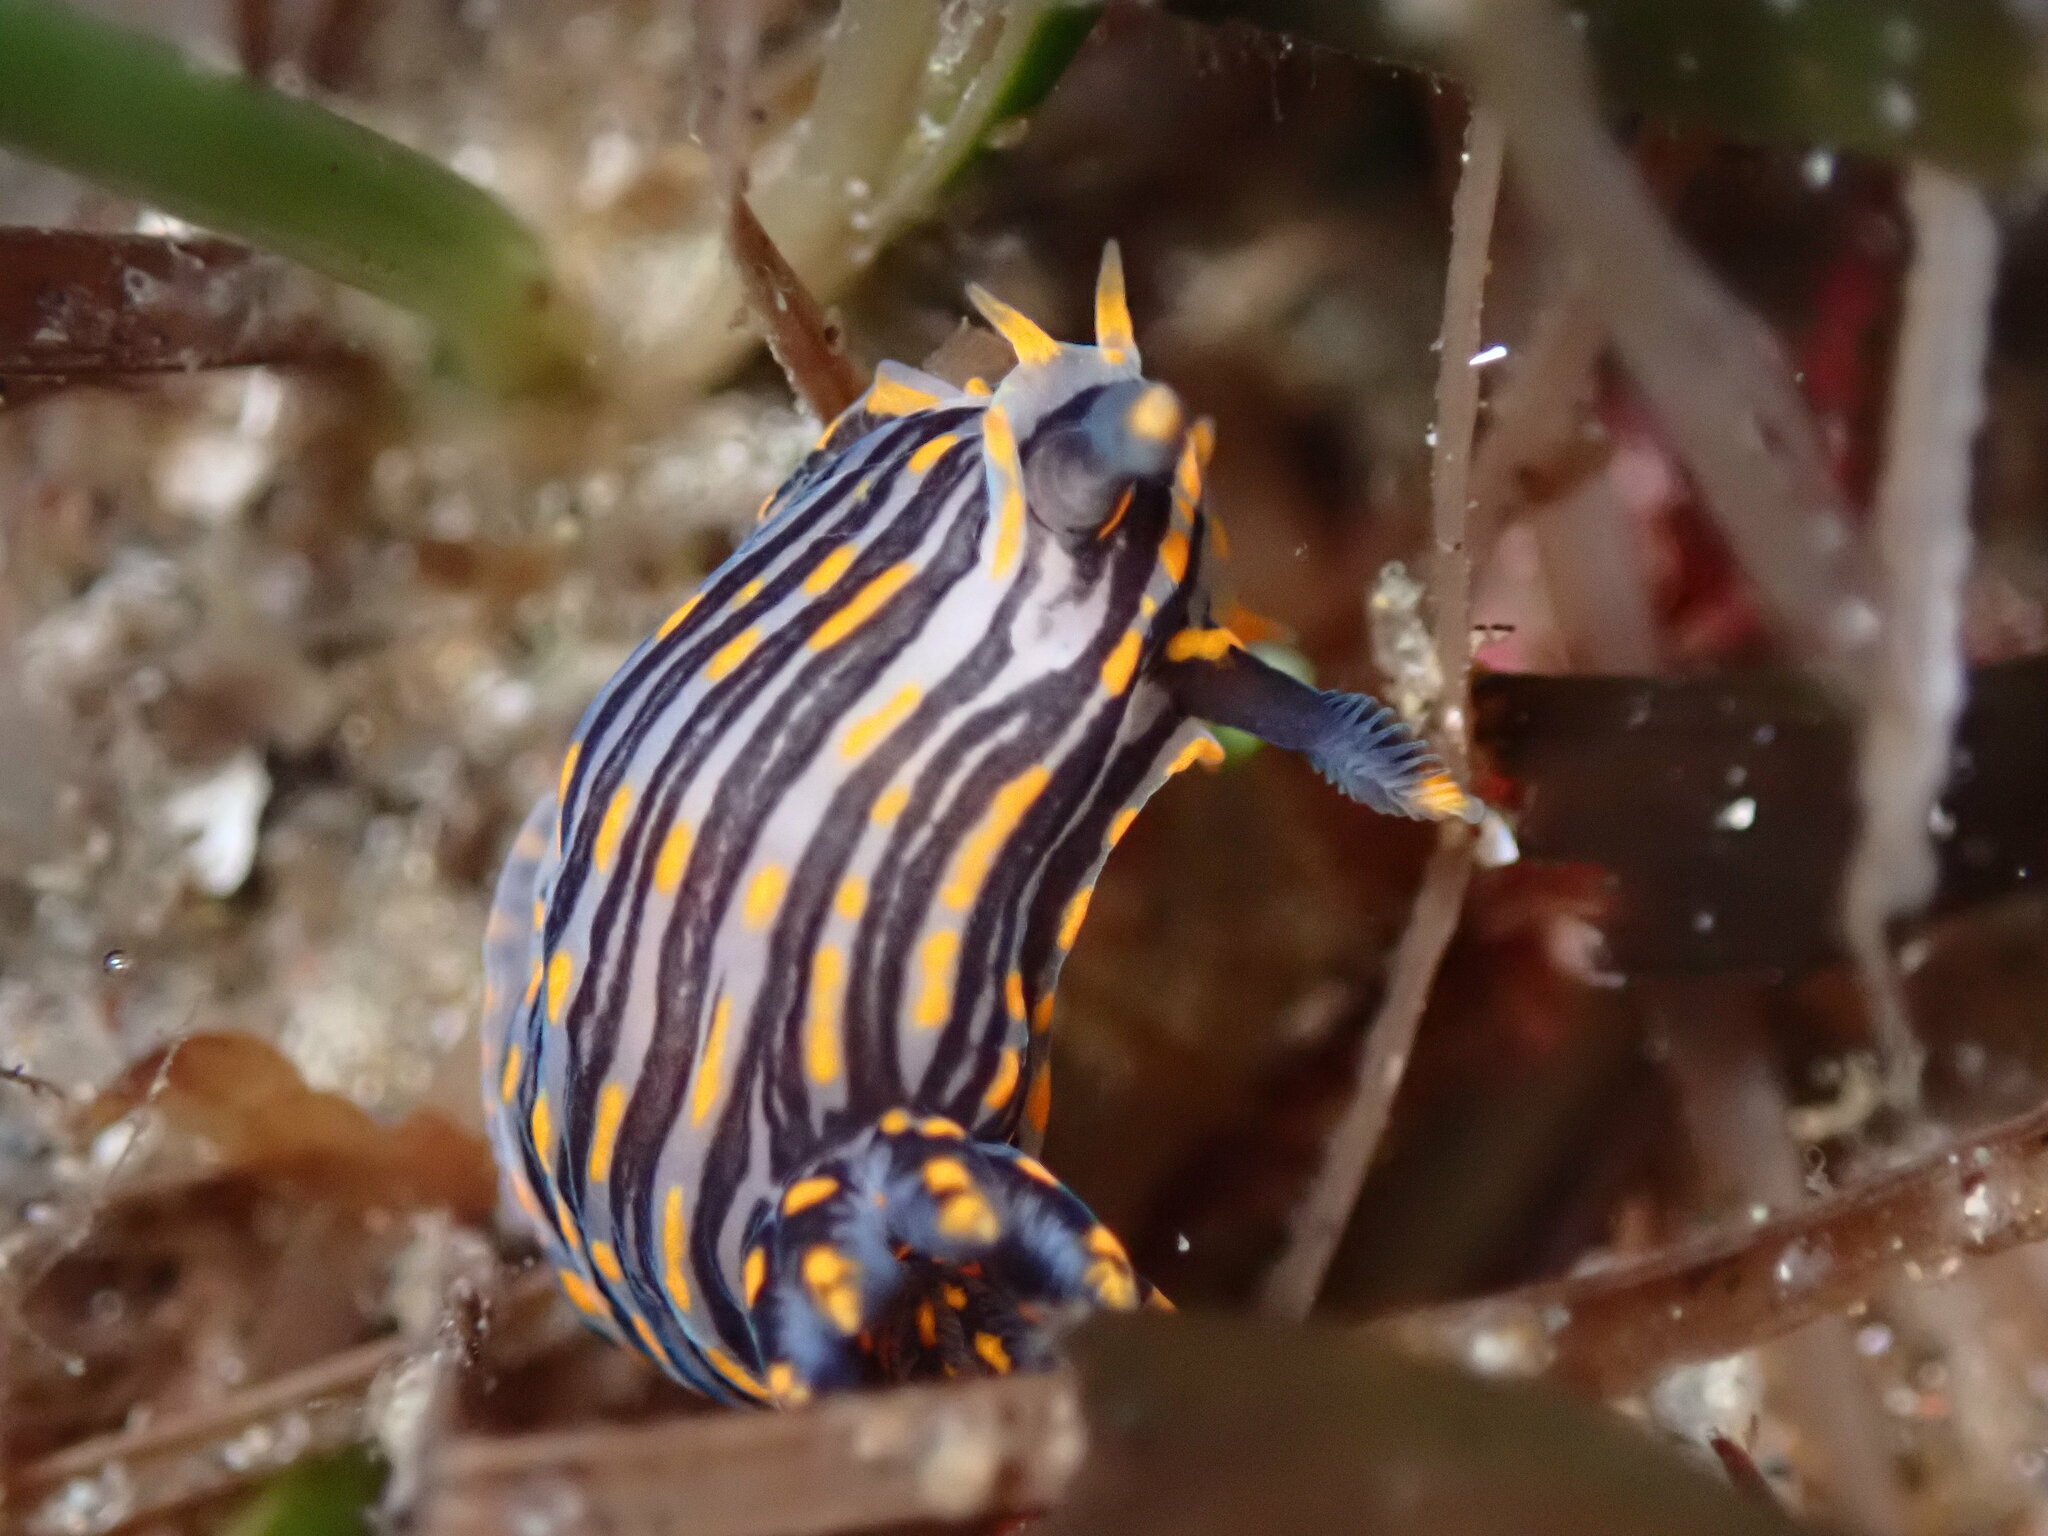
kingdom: Animalia
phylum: Mollusca
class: Gastropoda
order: Nudibranchia
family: Polyceridae
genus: Polycera
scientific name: Polycera atra
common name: Orange-spike polycera
